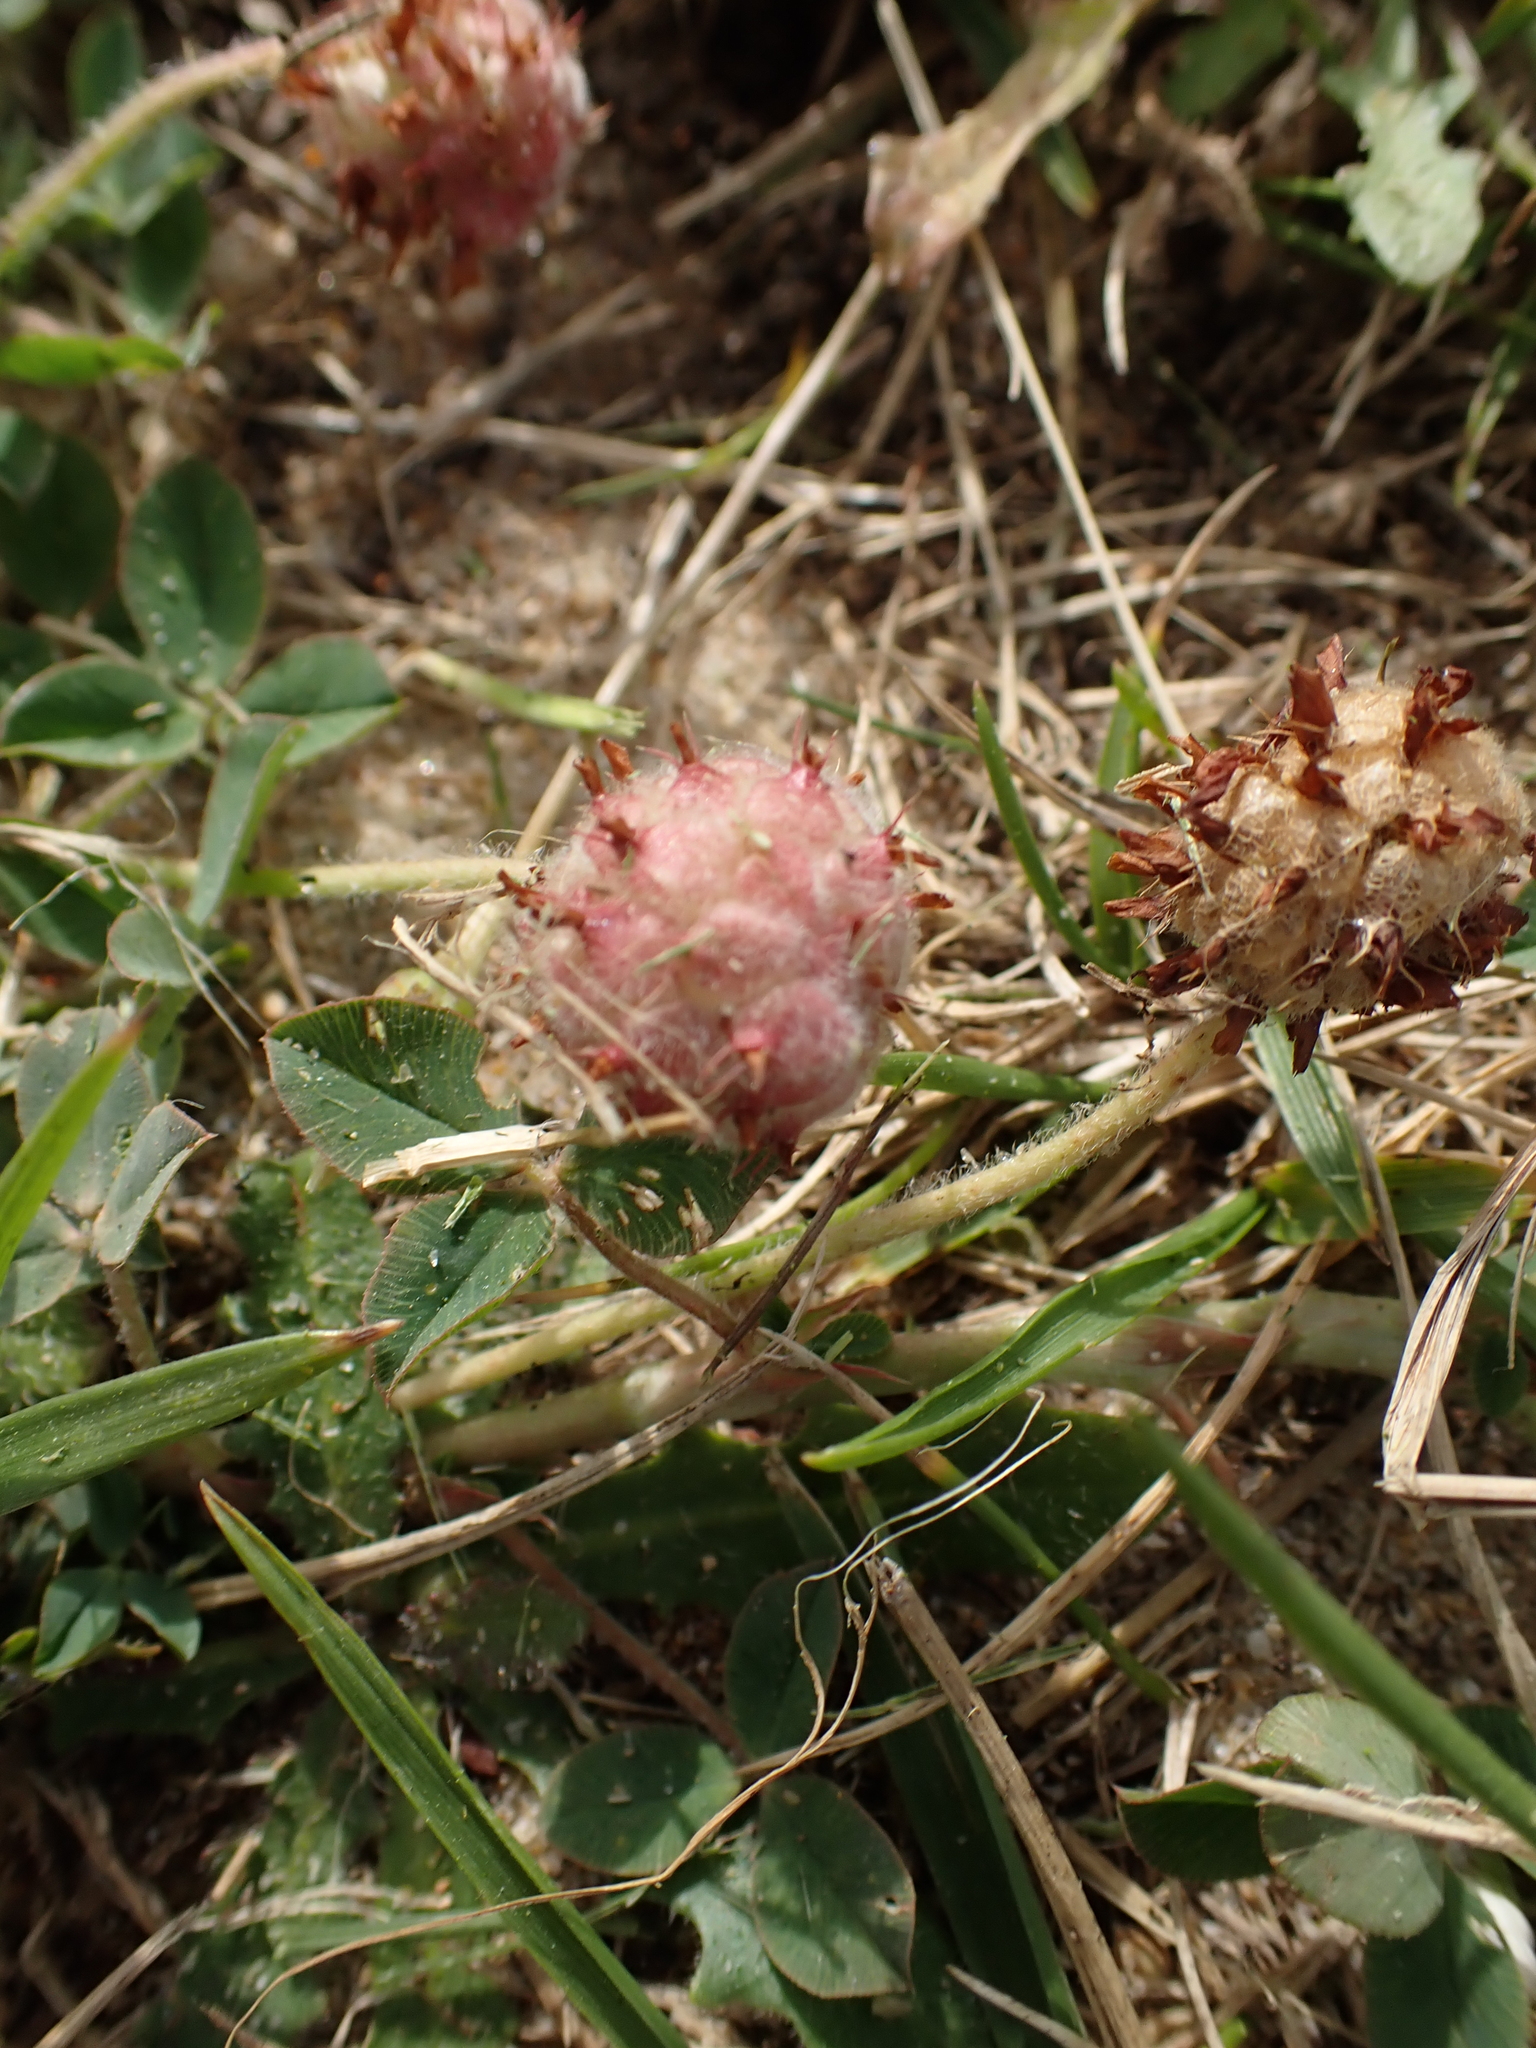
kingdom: Plantae
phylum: Tracheophyta
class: Magnoliopsida
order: Fabales
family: Fabaceae
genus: Trifolium
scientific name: Trifolium fragiferum
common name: Strawberry clover
